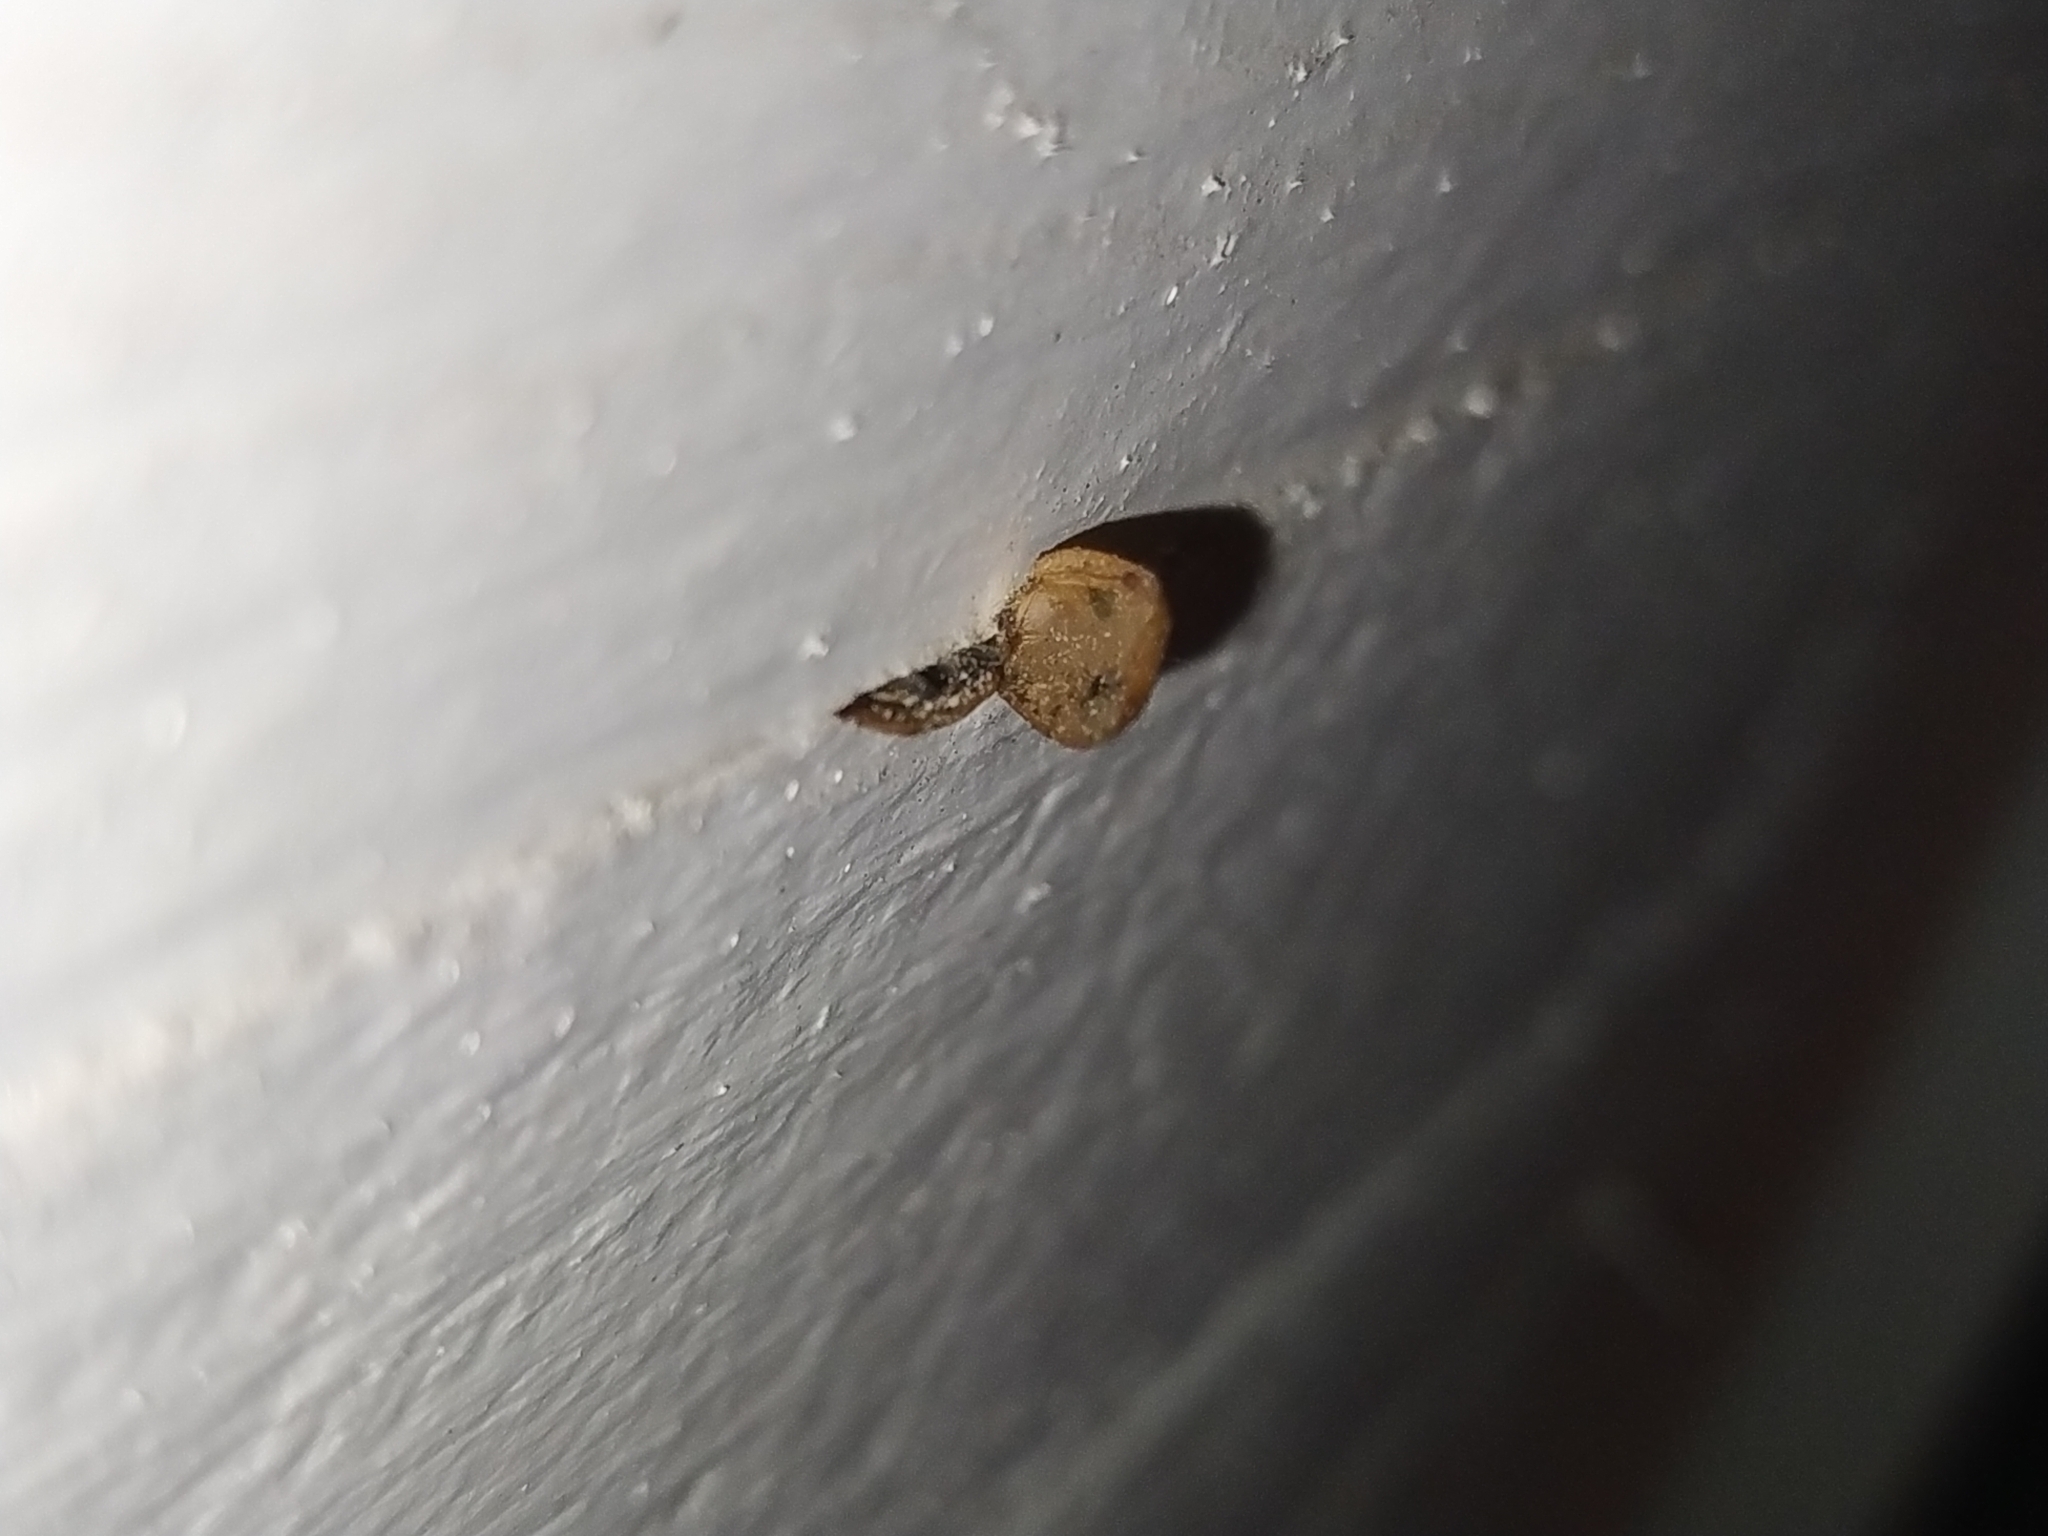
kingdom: Animalia
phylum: Arthropoda
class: Insecta
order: Coleoptera
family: Coccinellidae
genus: Coccinella
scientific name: Coccinella septempunctata
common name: Sevenspotted lady beetle
